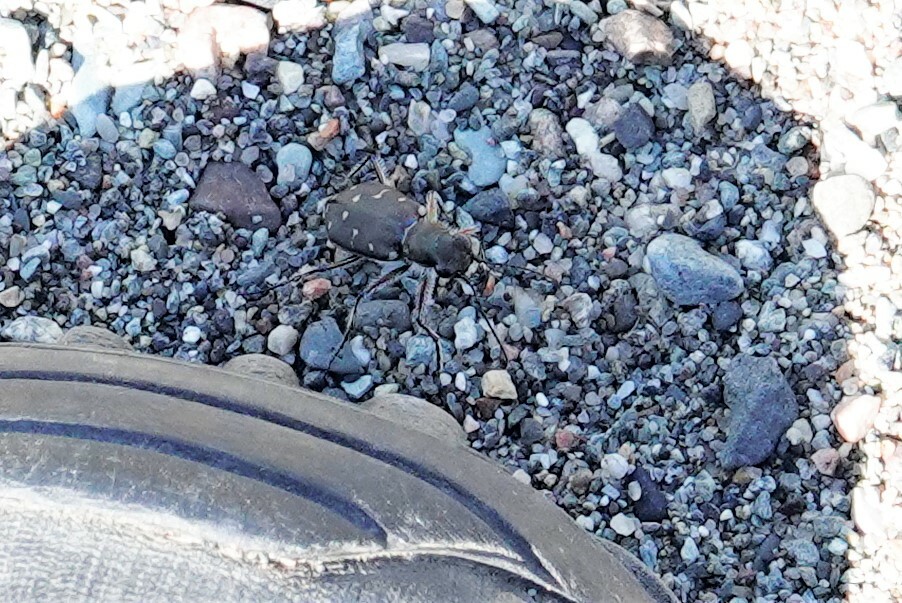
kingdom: Animalia
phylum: Arthropoda
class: Insecta
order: Coleoptera
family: Carabidae
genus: Cicindela
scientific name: Cicindela duodecimguttata
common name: Twelve-spotted tiger beetle
